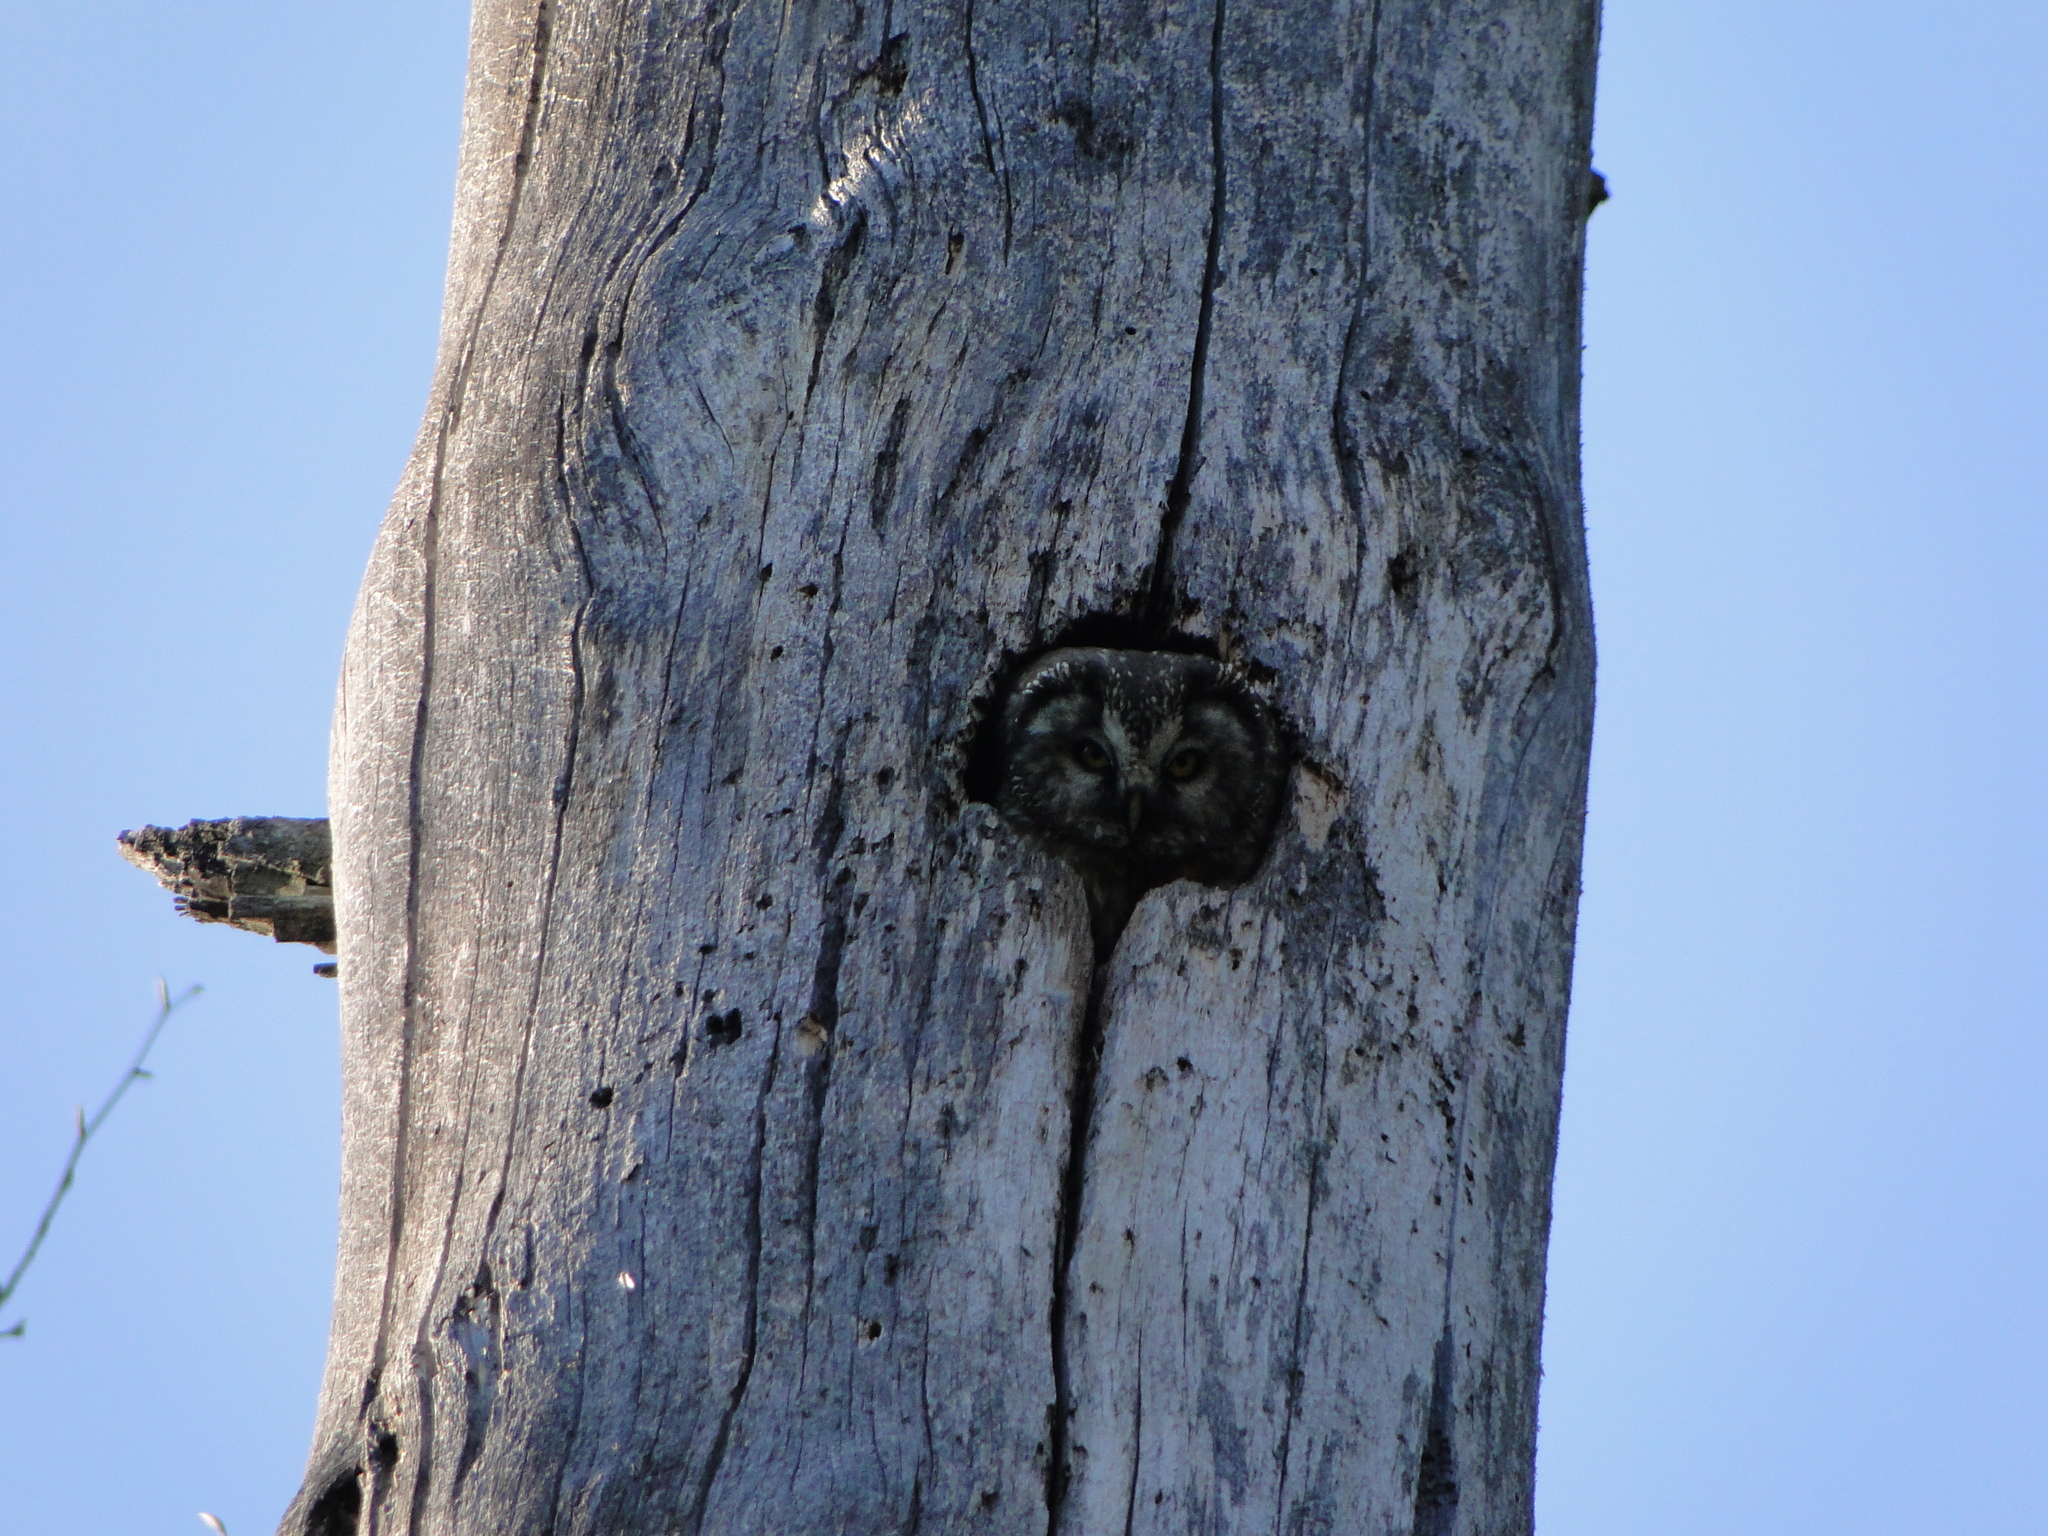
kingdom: Animalia
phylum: Chordata
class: Aves
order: Strigiformes
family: Strigidae
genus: Aegolius
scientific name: Aegolius funereus
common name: Boreal owl
